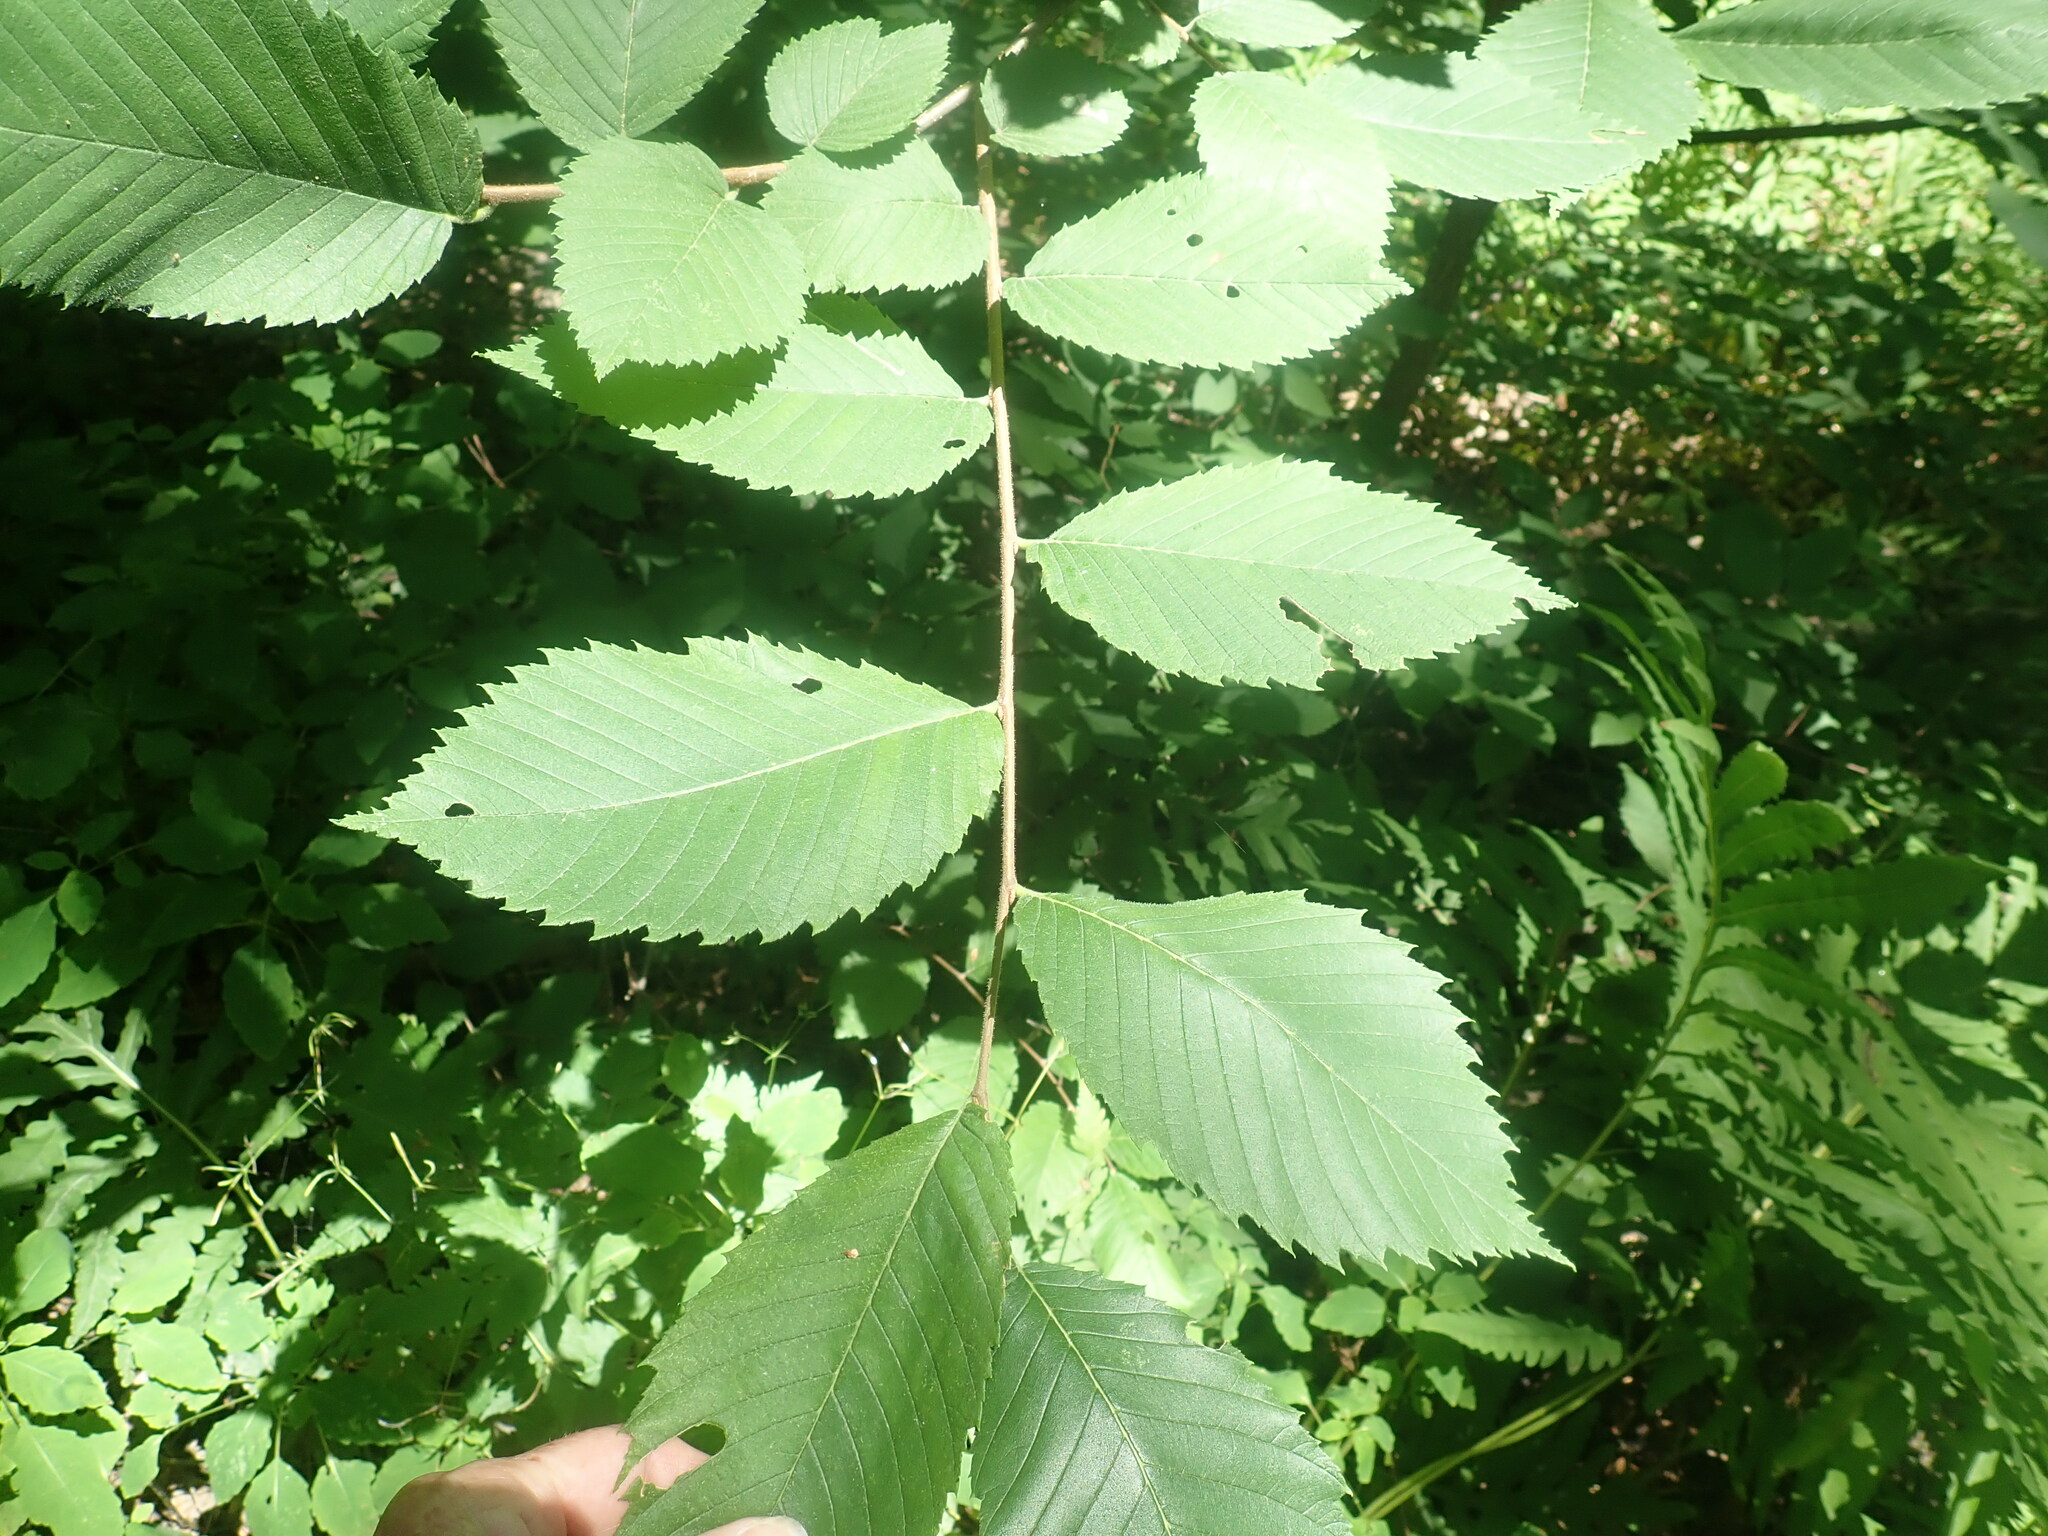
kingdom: Plantae
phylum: Tracheophyta
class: Magnoliopsida
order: Rosales
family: Ulmaceae
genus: Ulmus
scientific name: Ulmus
